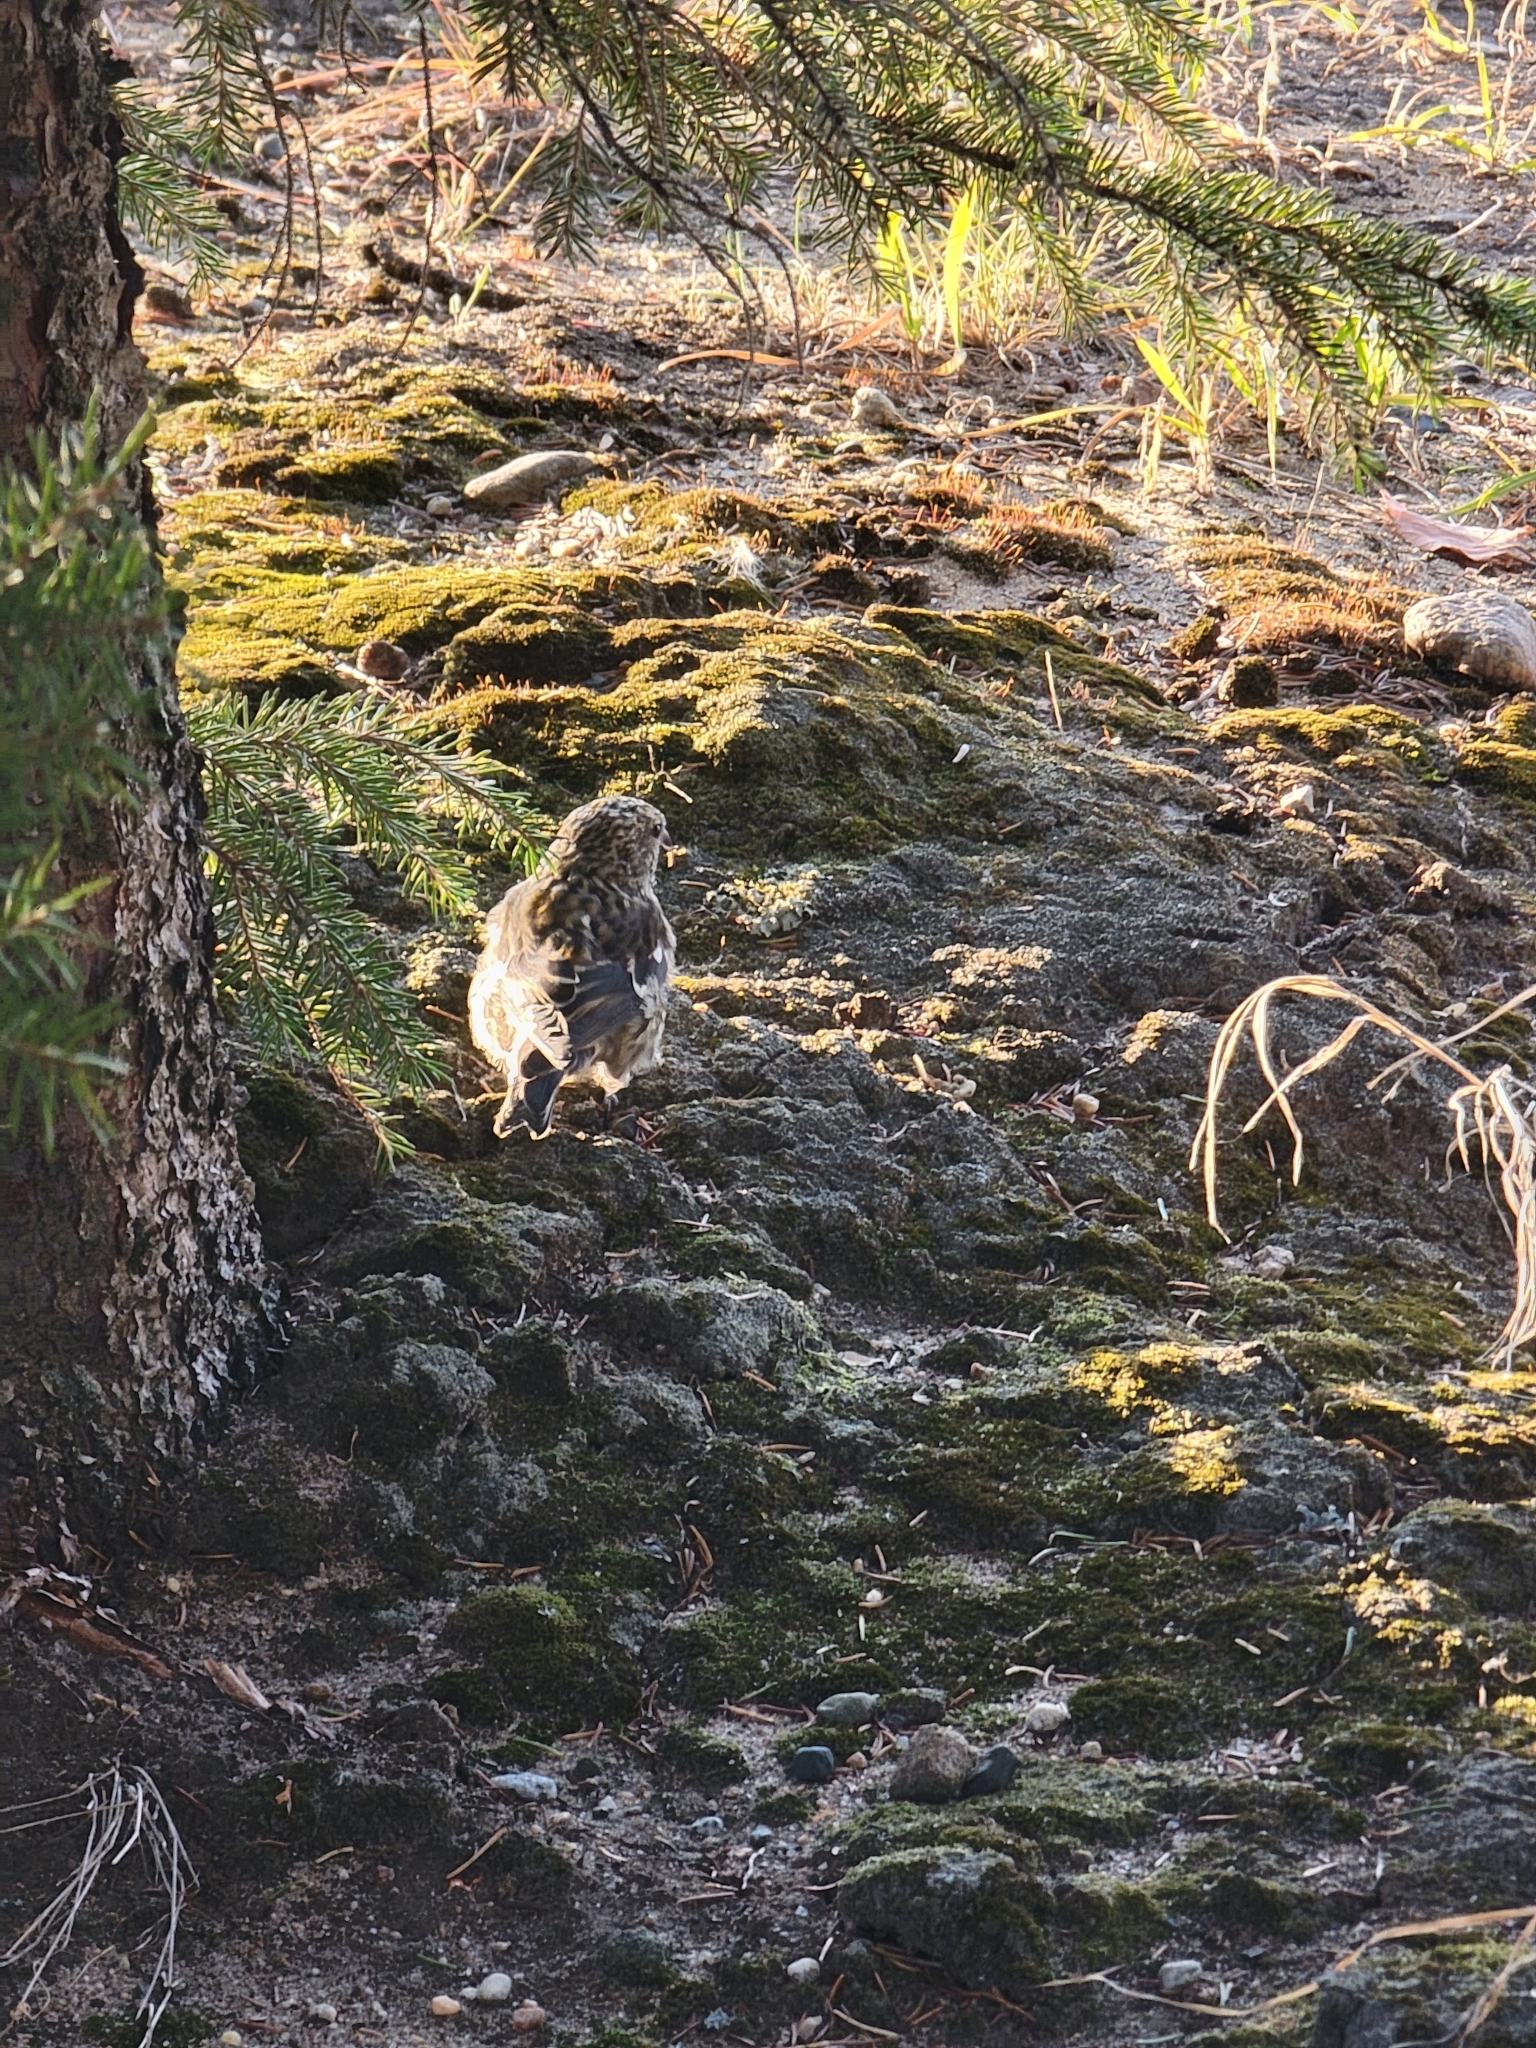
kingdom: Animalia
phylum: Chordata
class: Aves
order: Passeriformes
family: Fringillidae
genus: Loxia
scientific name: Loxia leucoptera
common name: Two-barred crossbill
